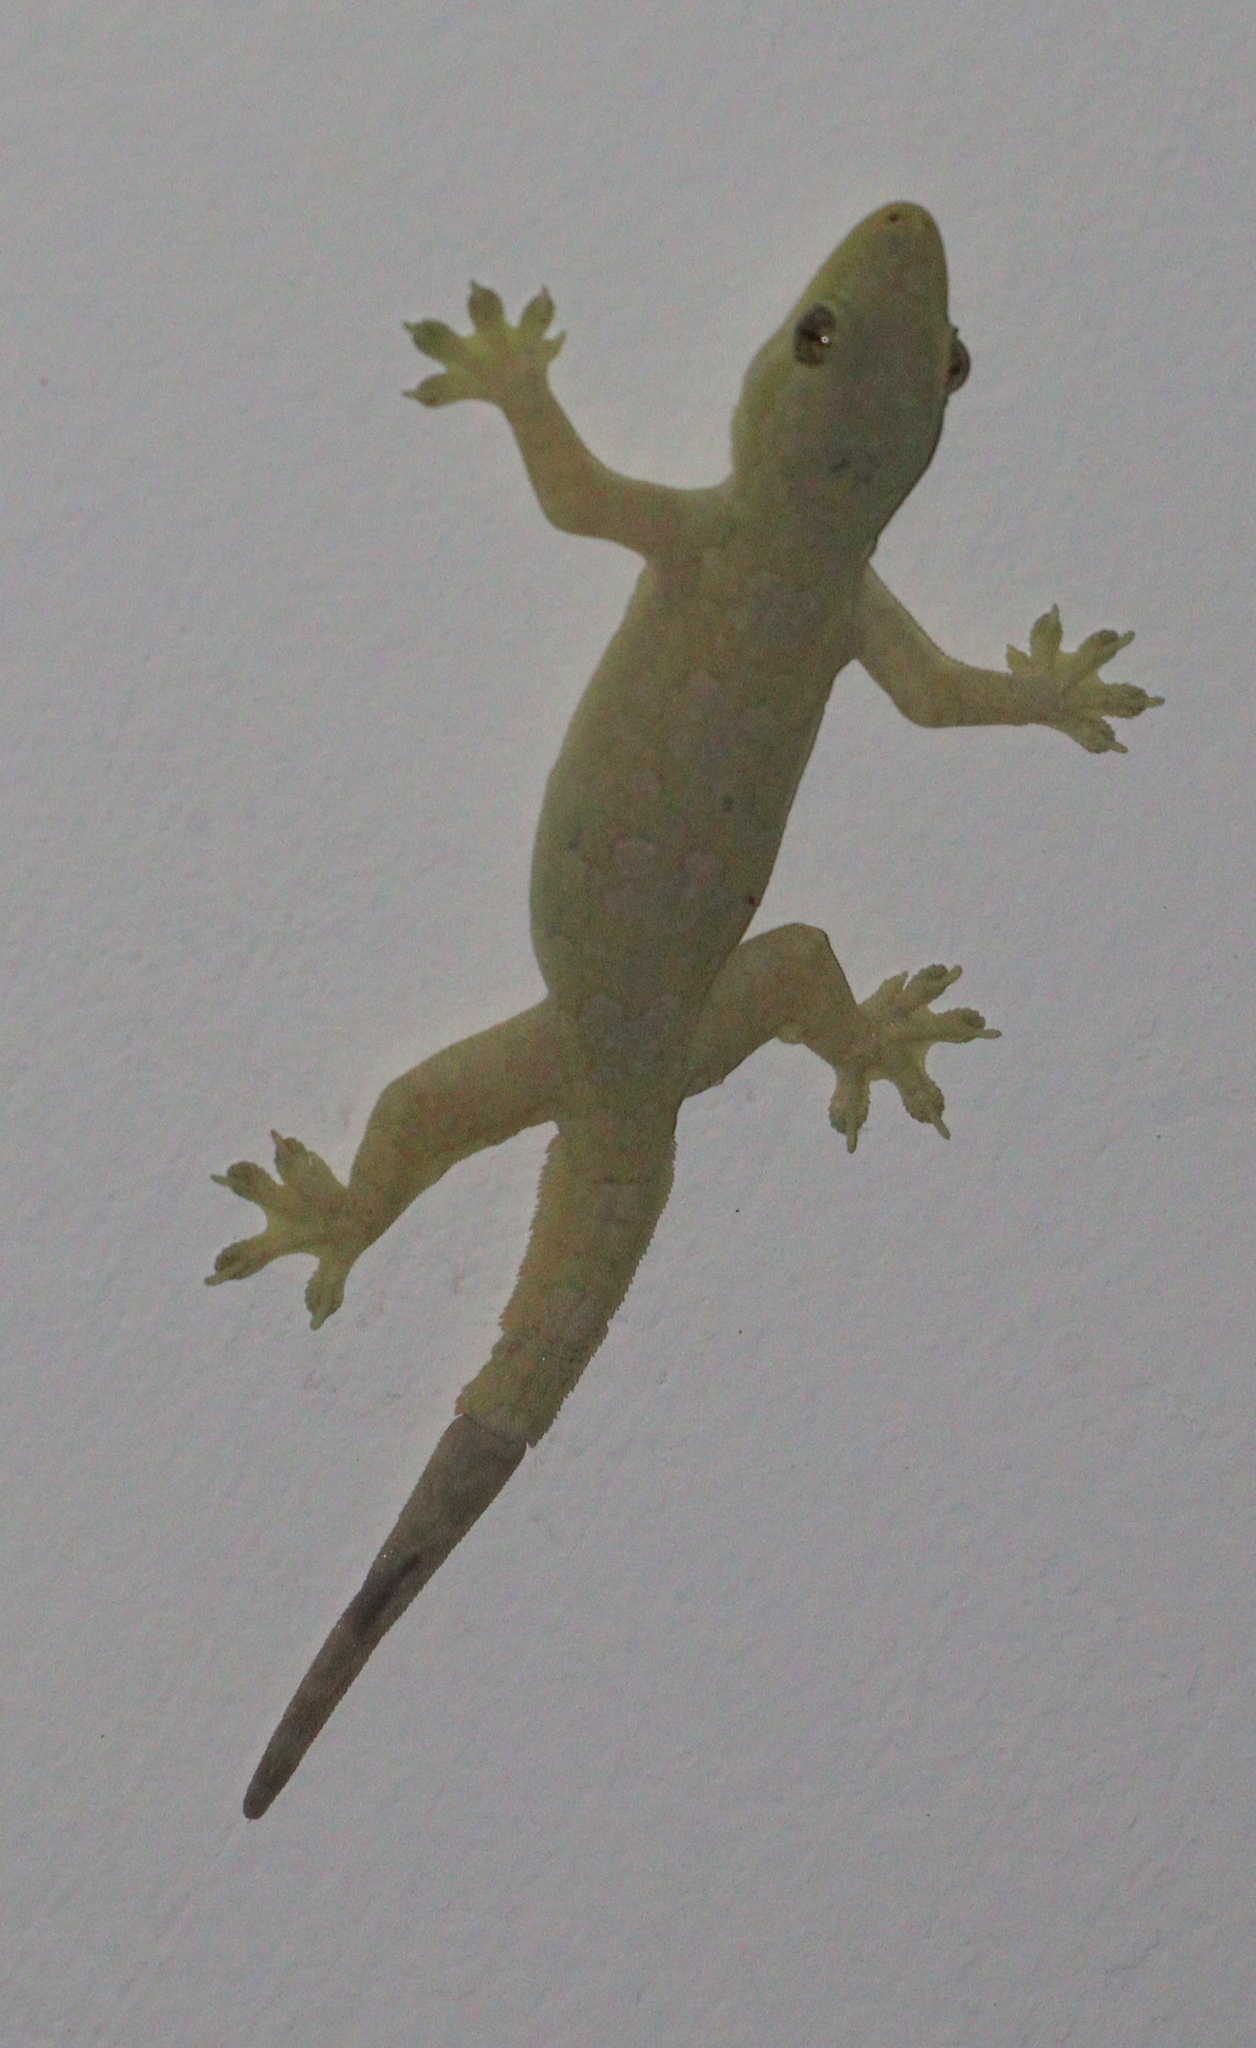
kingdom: Animalia
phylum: Chordata
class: Squamata
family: Gekkonidae
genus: Hemidactylus
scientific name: Hemidactylus platyurus
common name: Flat-tailed house gecko
